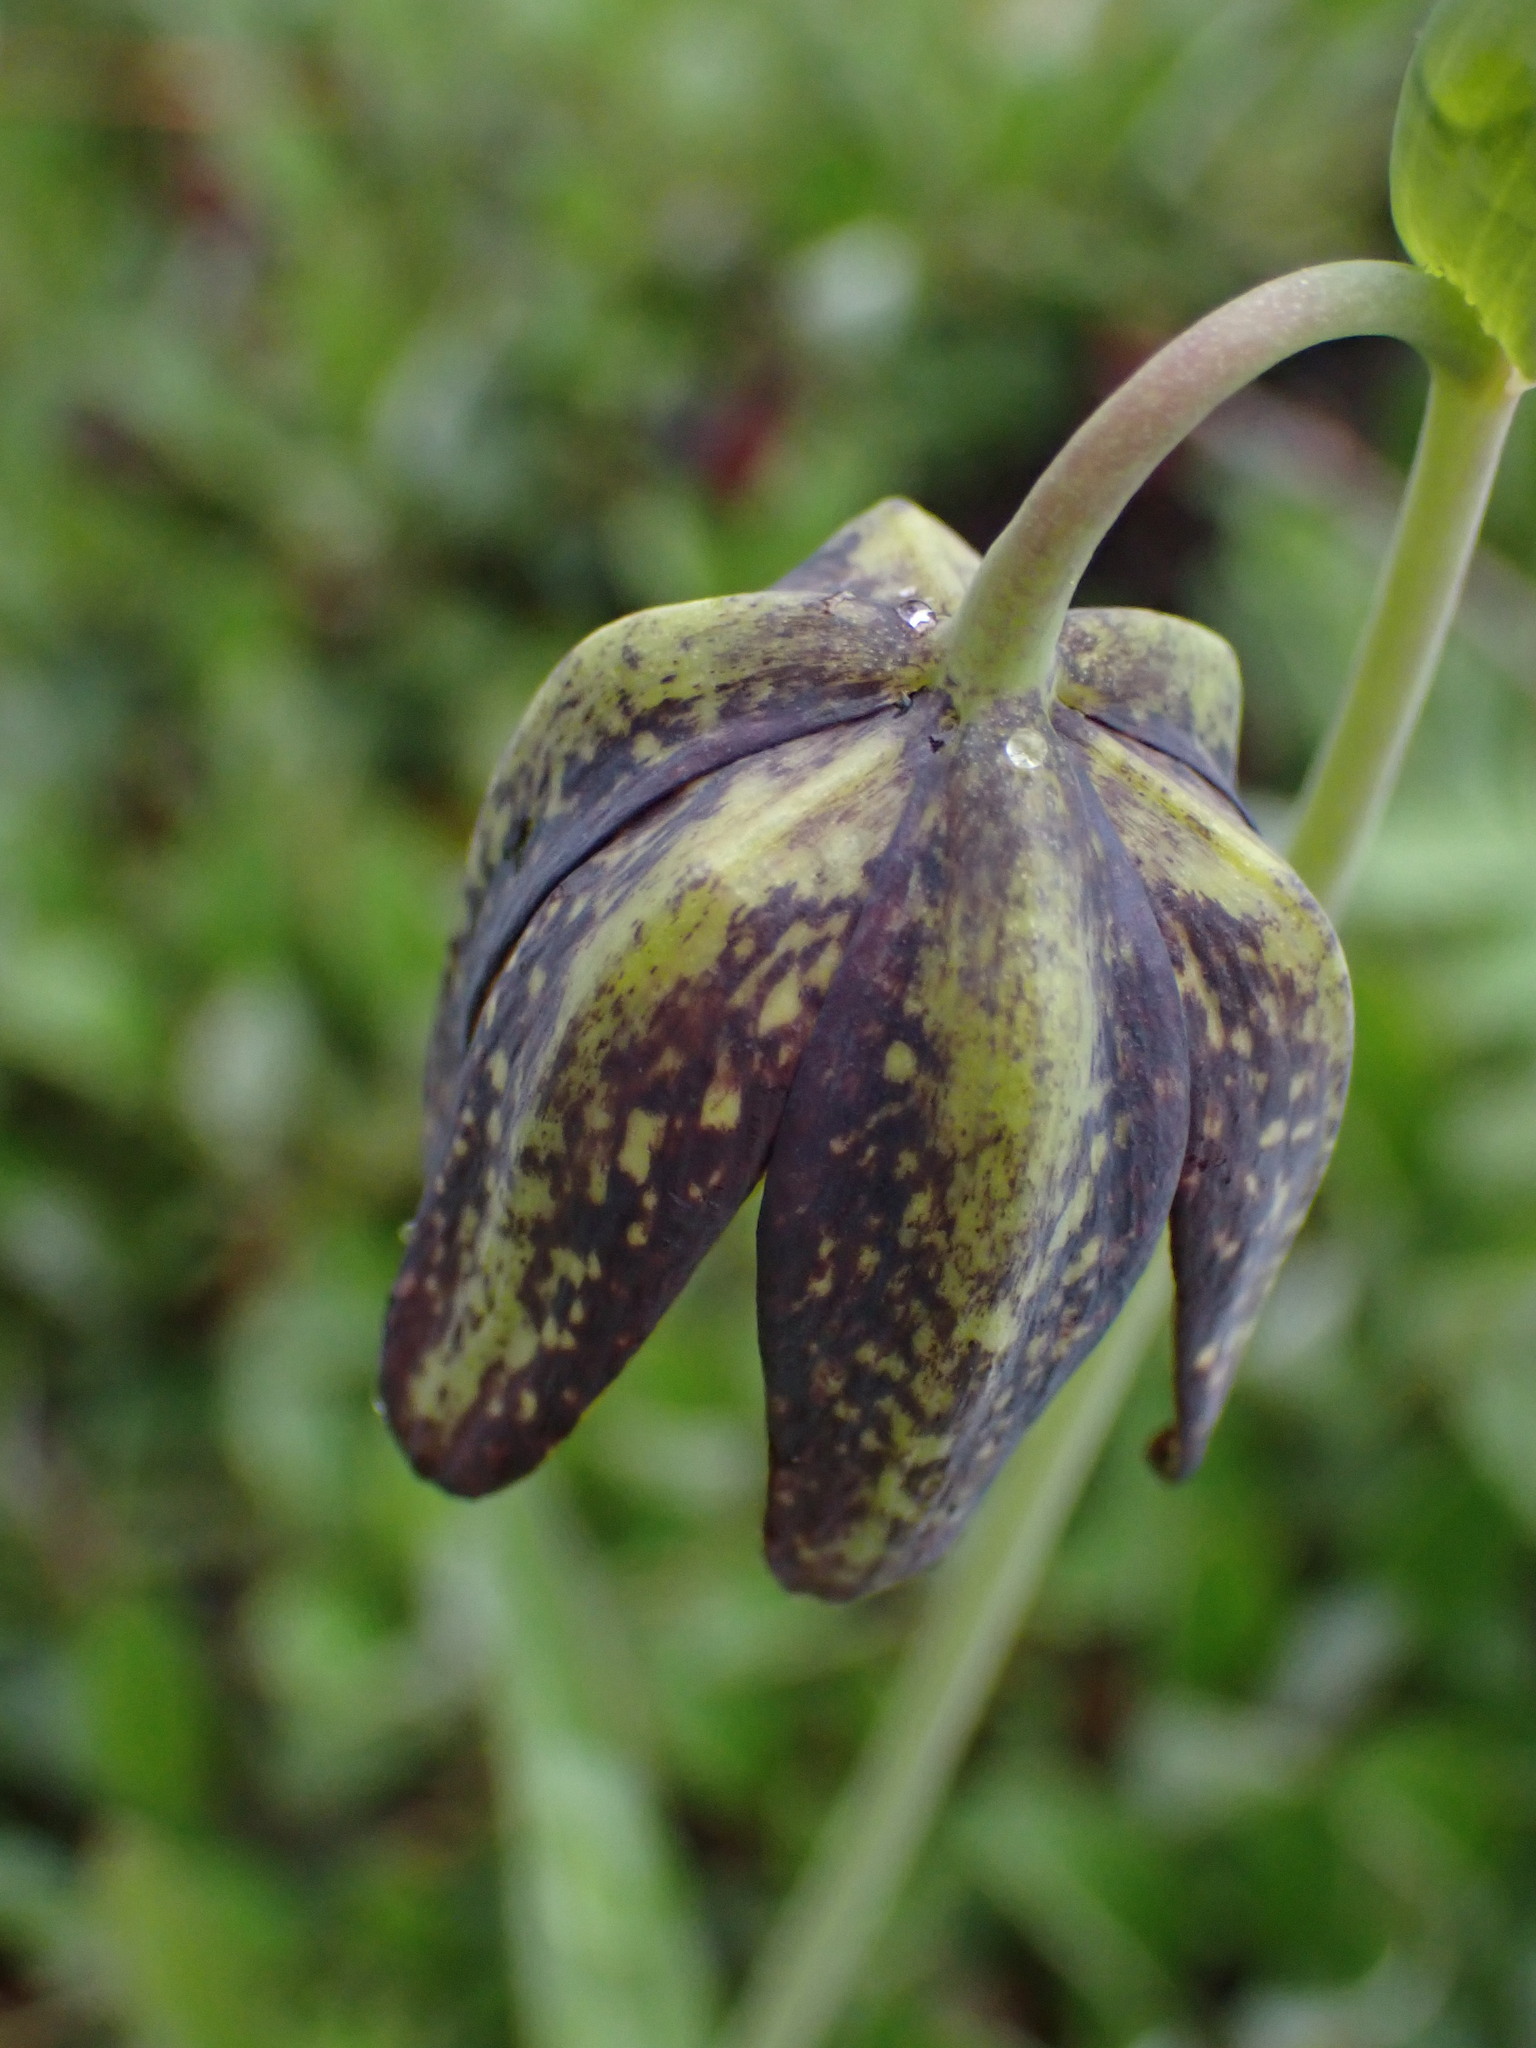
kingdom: Plantae
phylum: Tracheophyta
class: Liliopsida
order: Liliales
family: Liliaceae
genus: Fritillaria
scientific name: Fritillaria affinis
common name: Ojai fritillary
